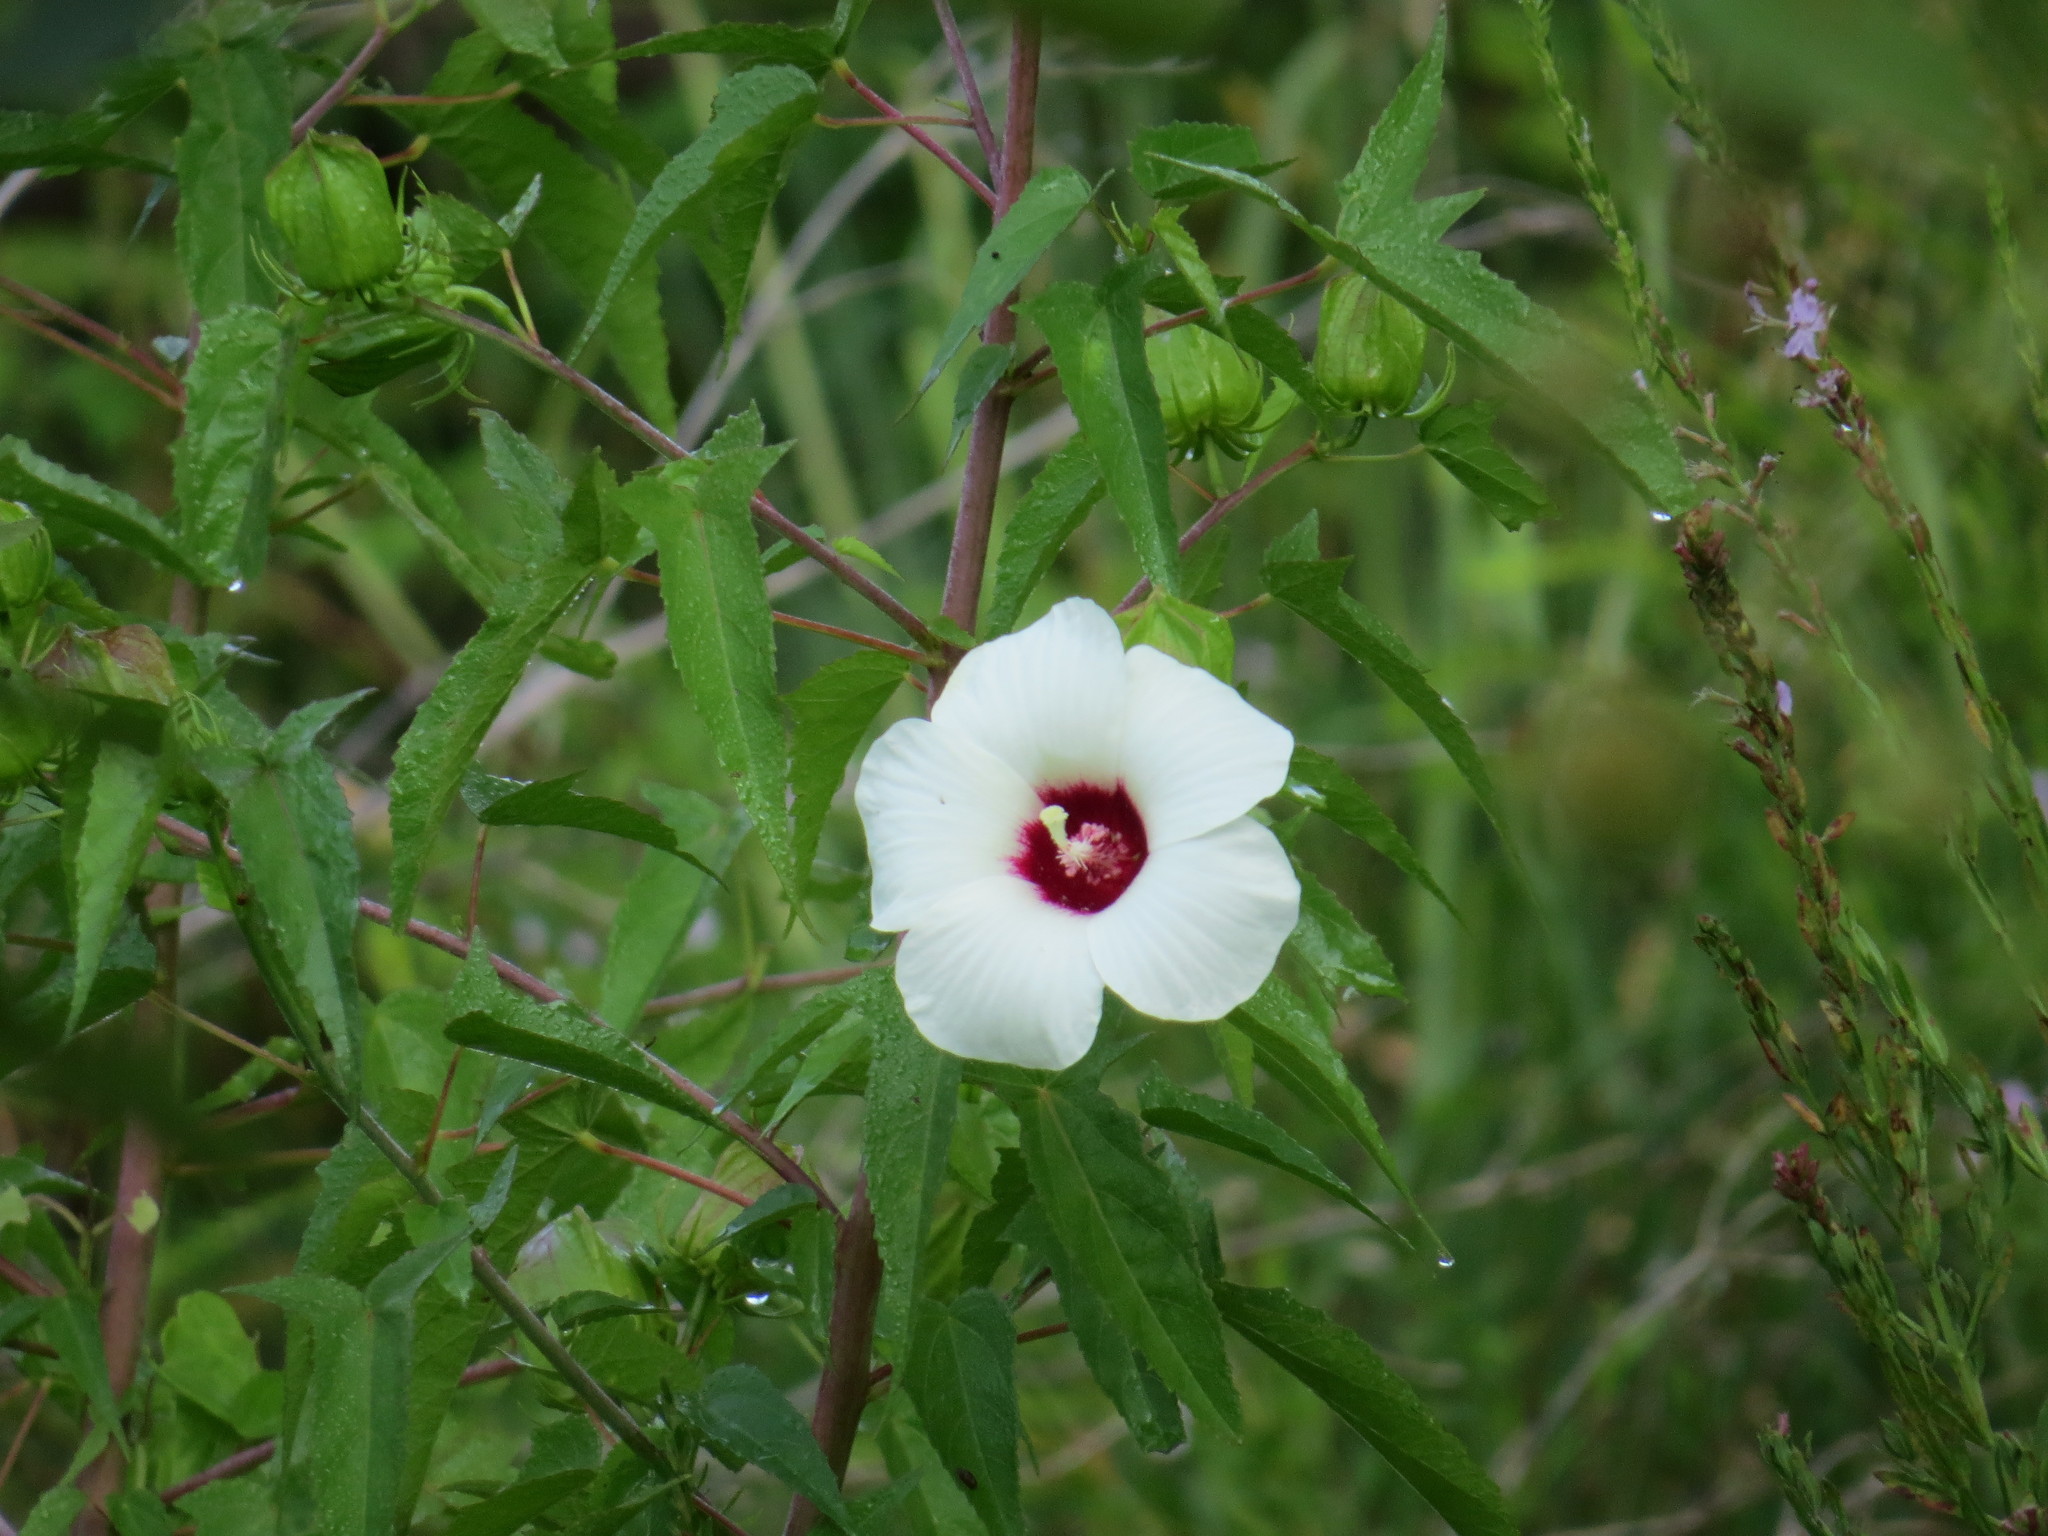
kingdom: Plantae
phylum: Tracheophyta
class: Magnoliopsida
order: Malvales
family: Malvaceae
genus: Hibiscus
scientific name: Hibiscus laevis
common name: Scarlet rose-mallow
